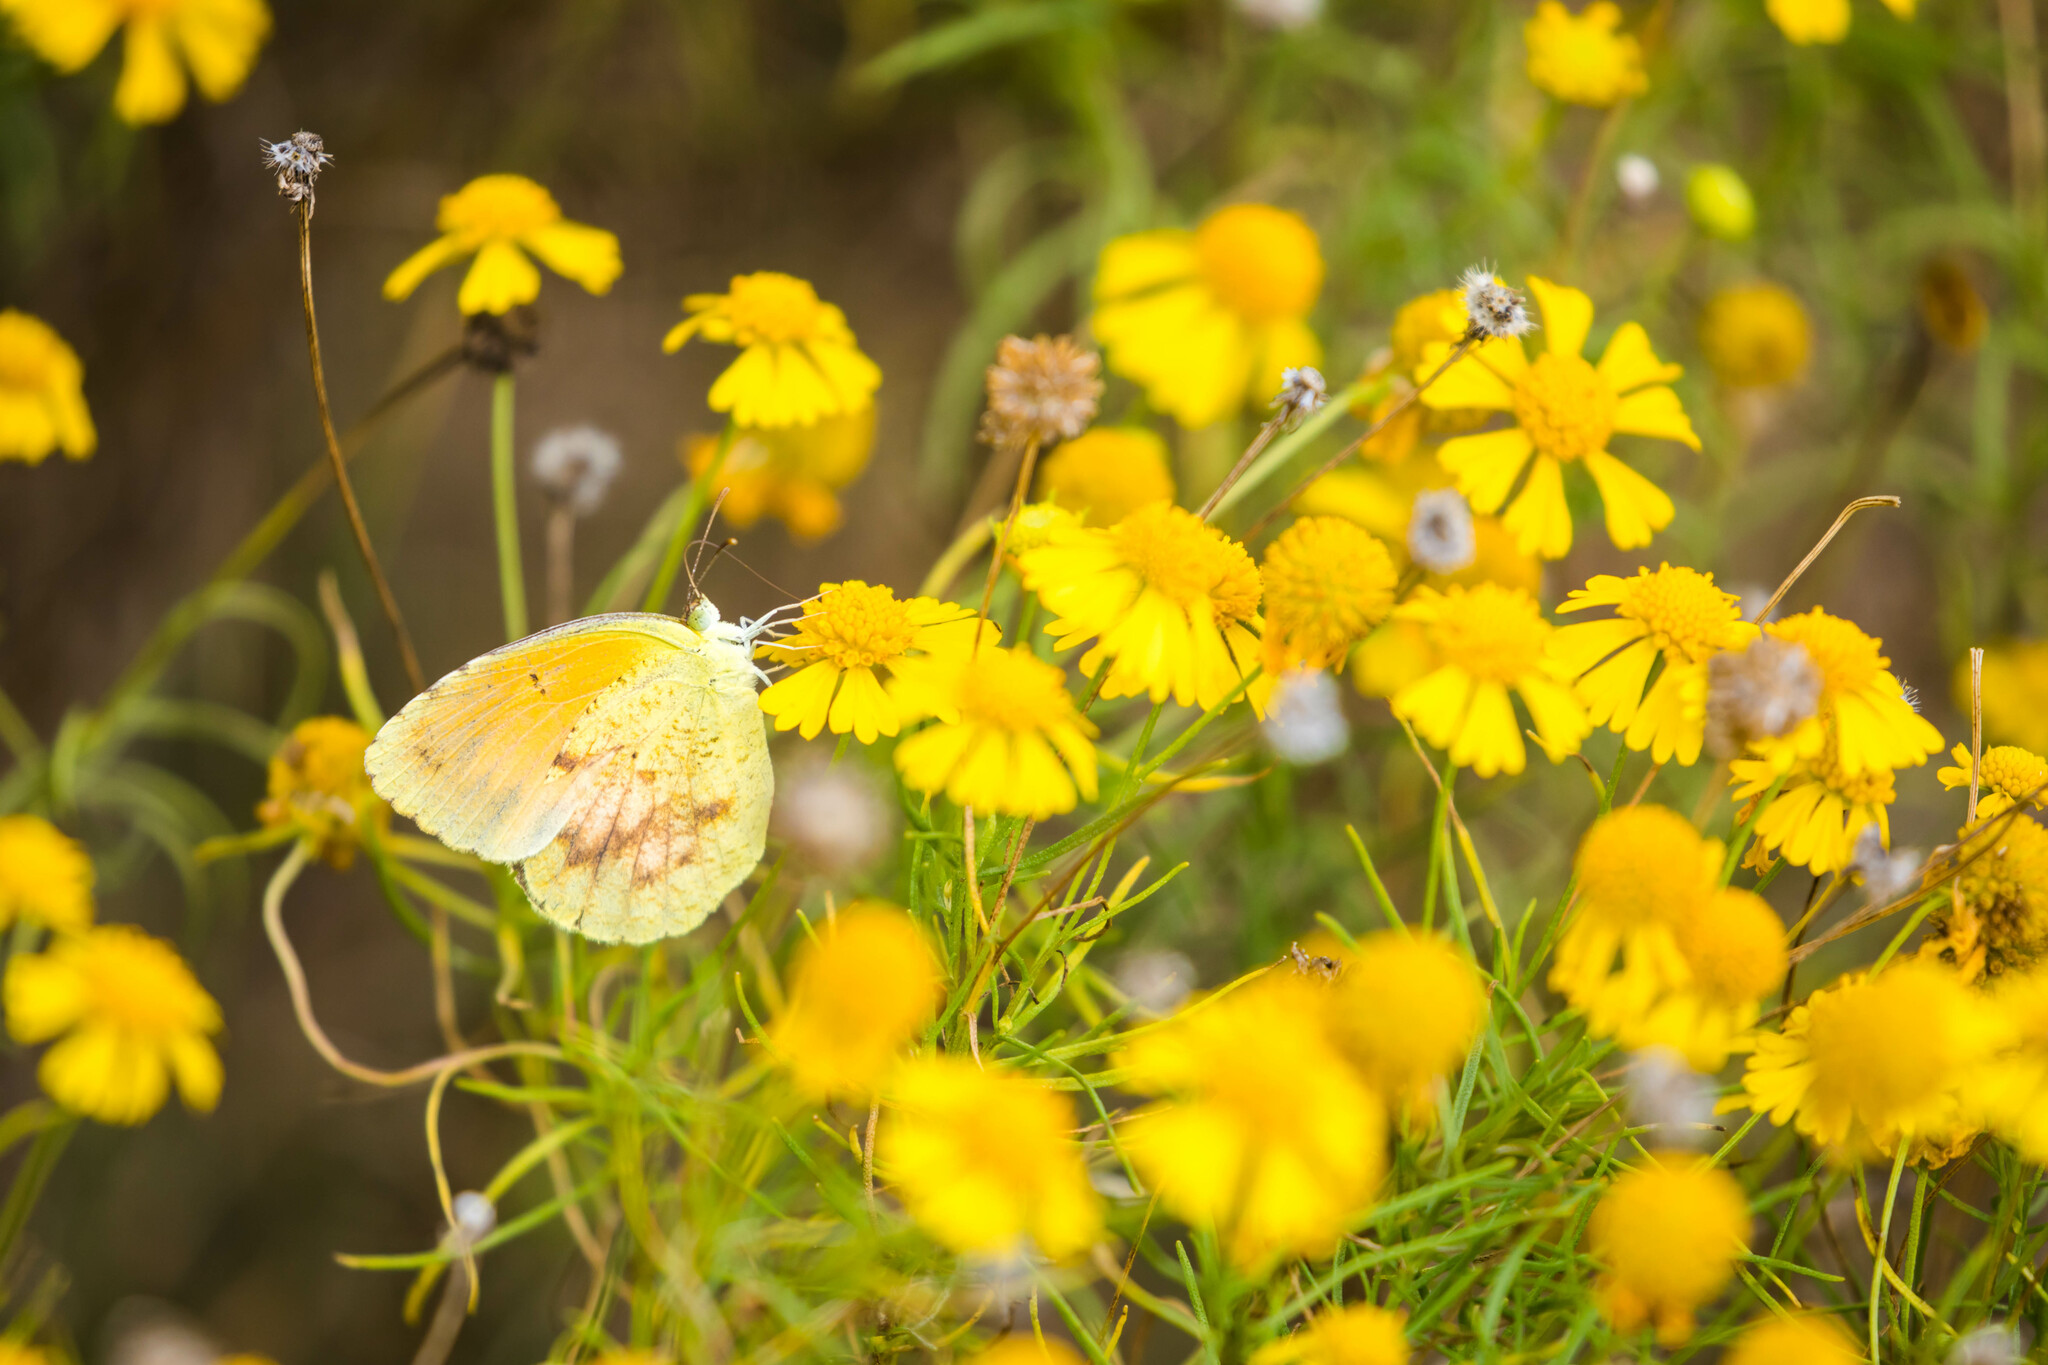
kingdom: Animalia
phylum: Arthropoda
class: Insecta
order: Lepidoptera
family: Pieridae
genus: Abaeis
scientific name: Abaeis nicippe
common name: Sleepy orange
